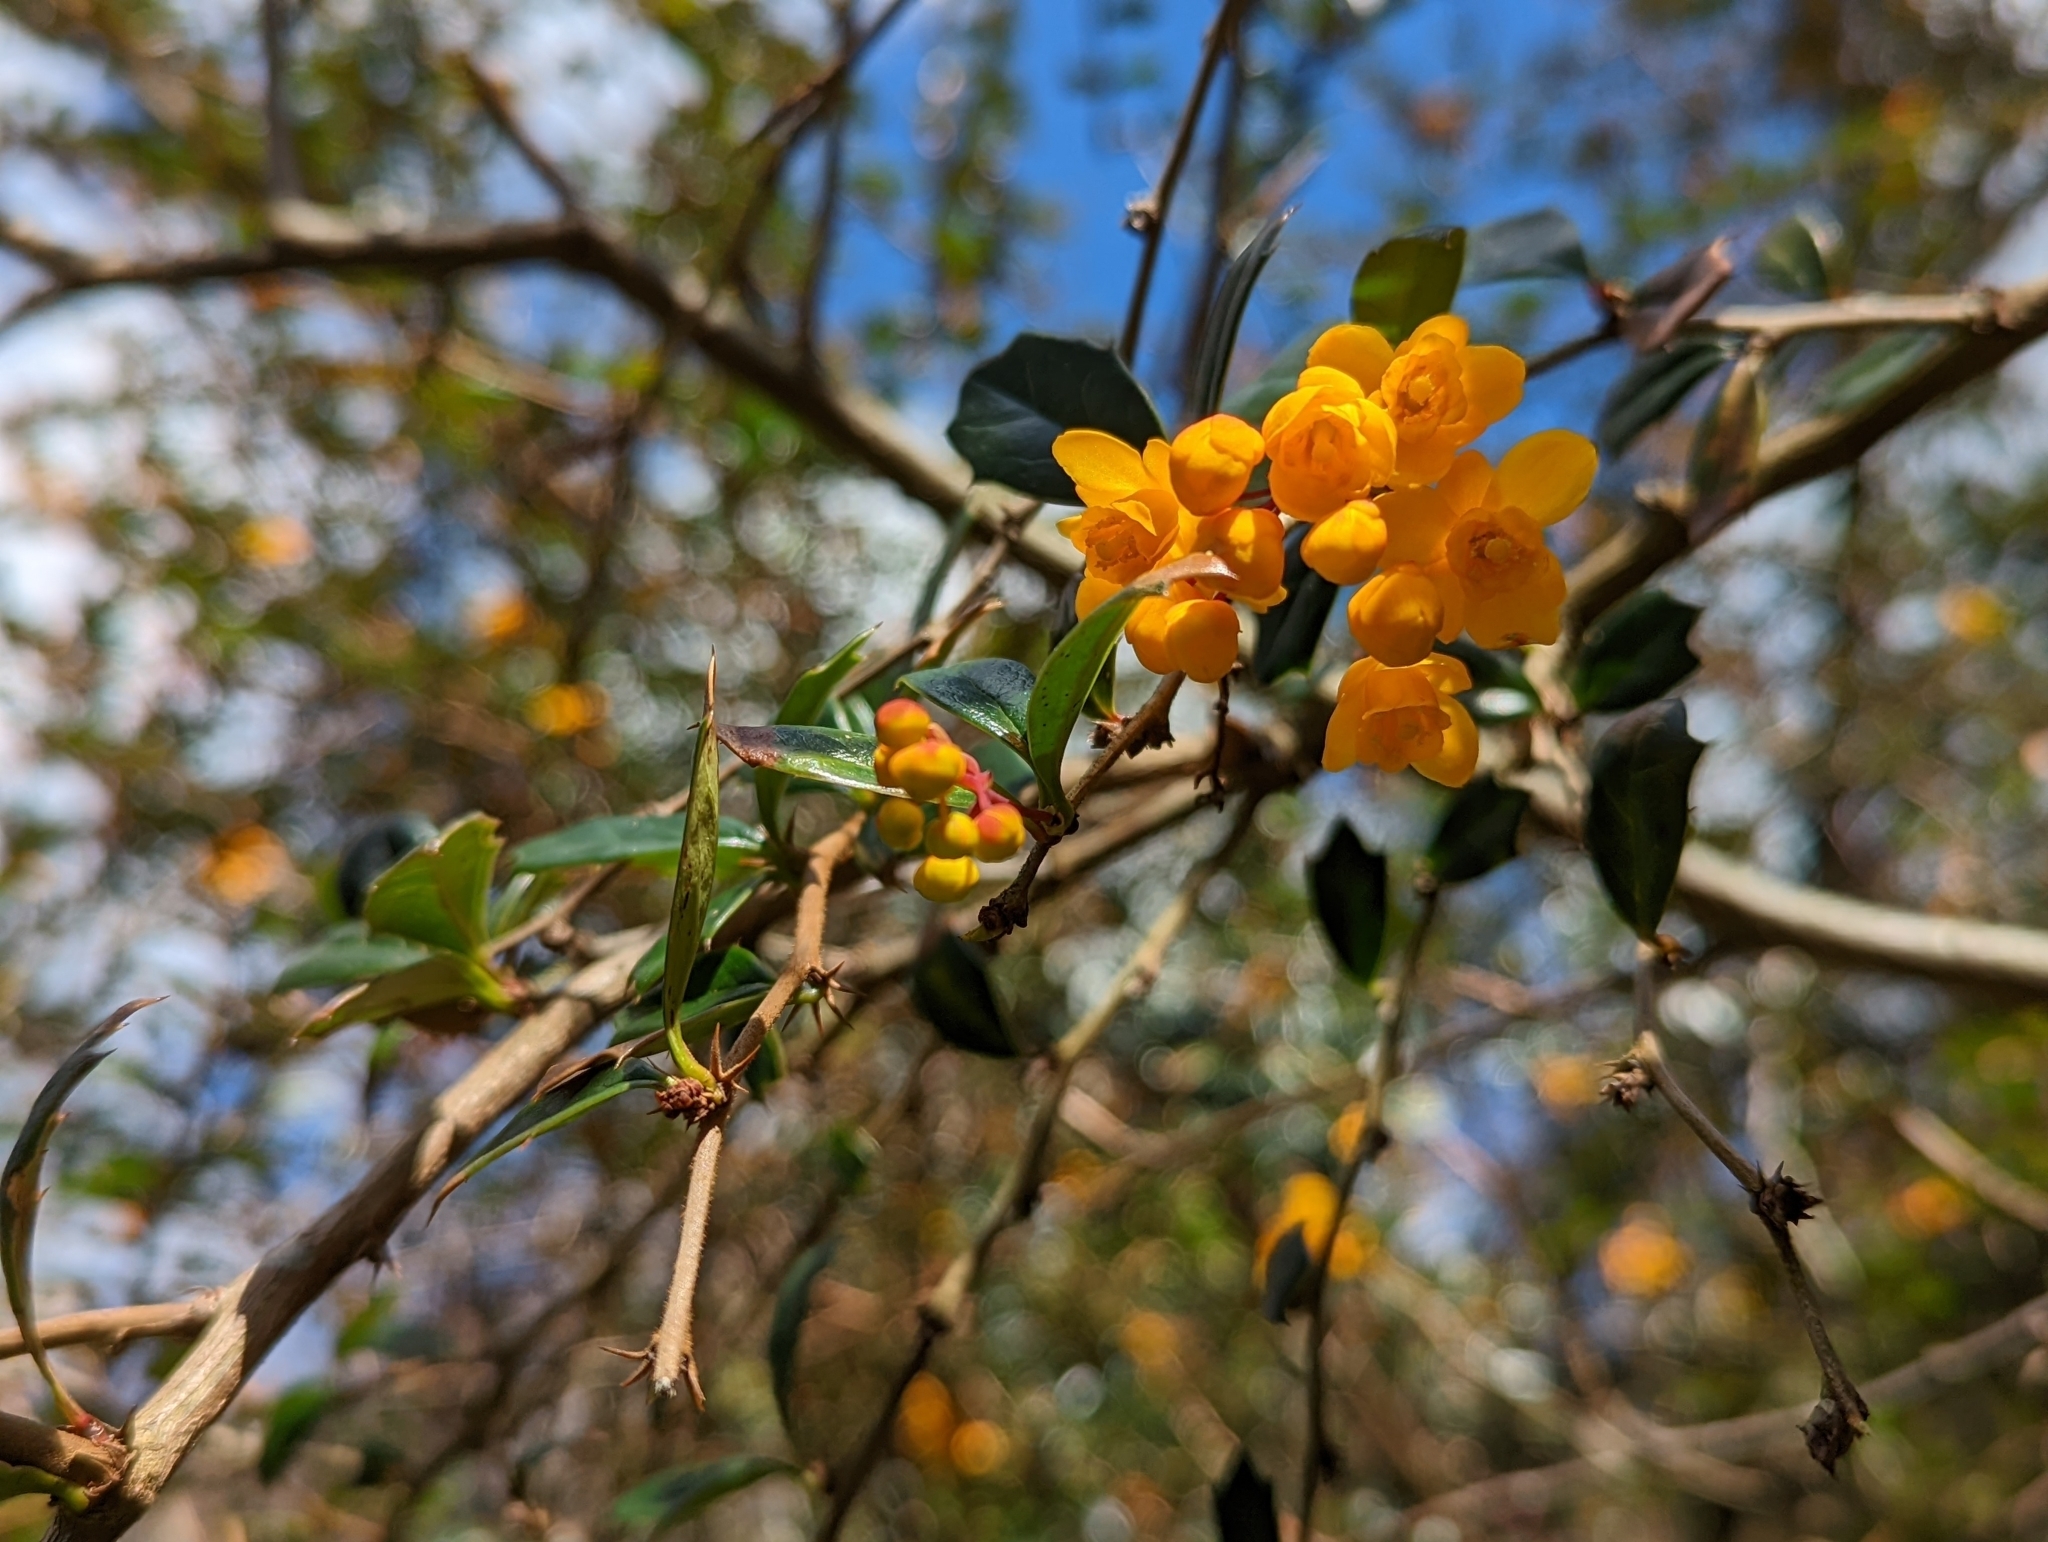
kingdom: Plantae
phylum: Tracheophyta
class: Magnoliopsida
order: Ranunculales
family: Berberidaceae
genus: Berberis
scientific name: Berberis darwinii
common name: Darwin's barberry
